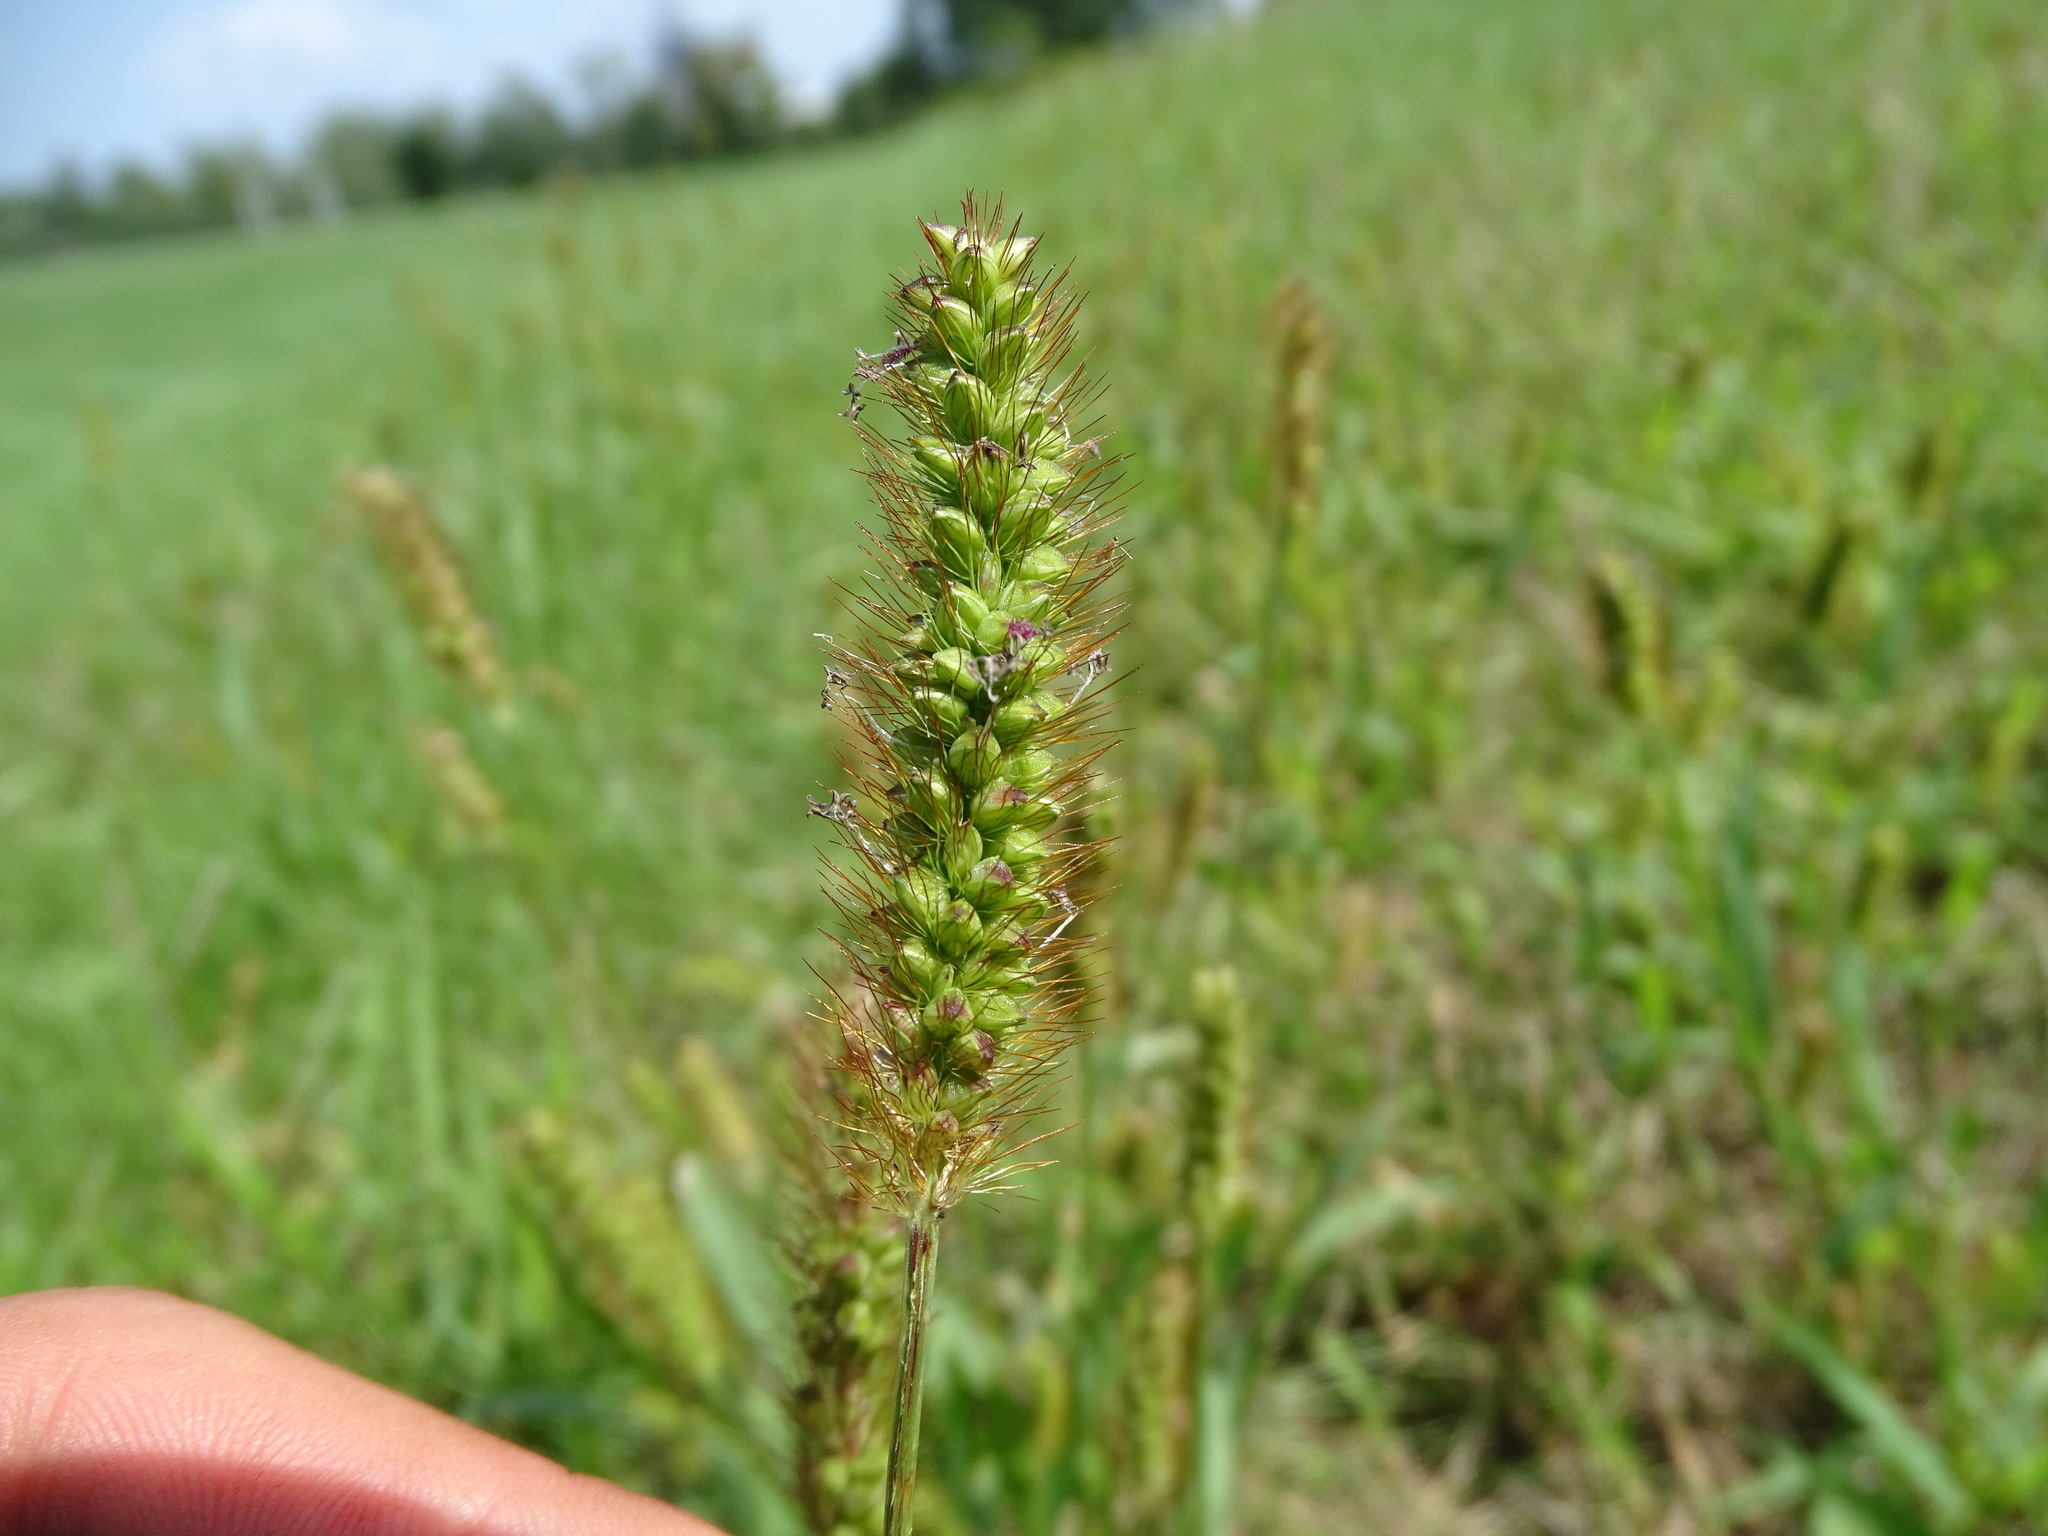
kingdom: Plantae
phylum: Tracheophyta
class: Liliopsida
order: Poales
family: Poaceae
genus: Setaria
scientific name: Setaria pumila
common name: Yellow bristle-grass
